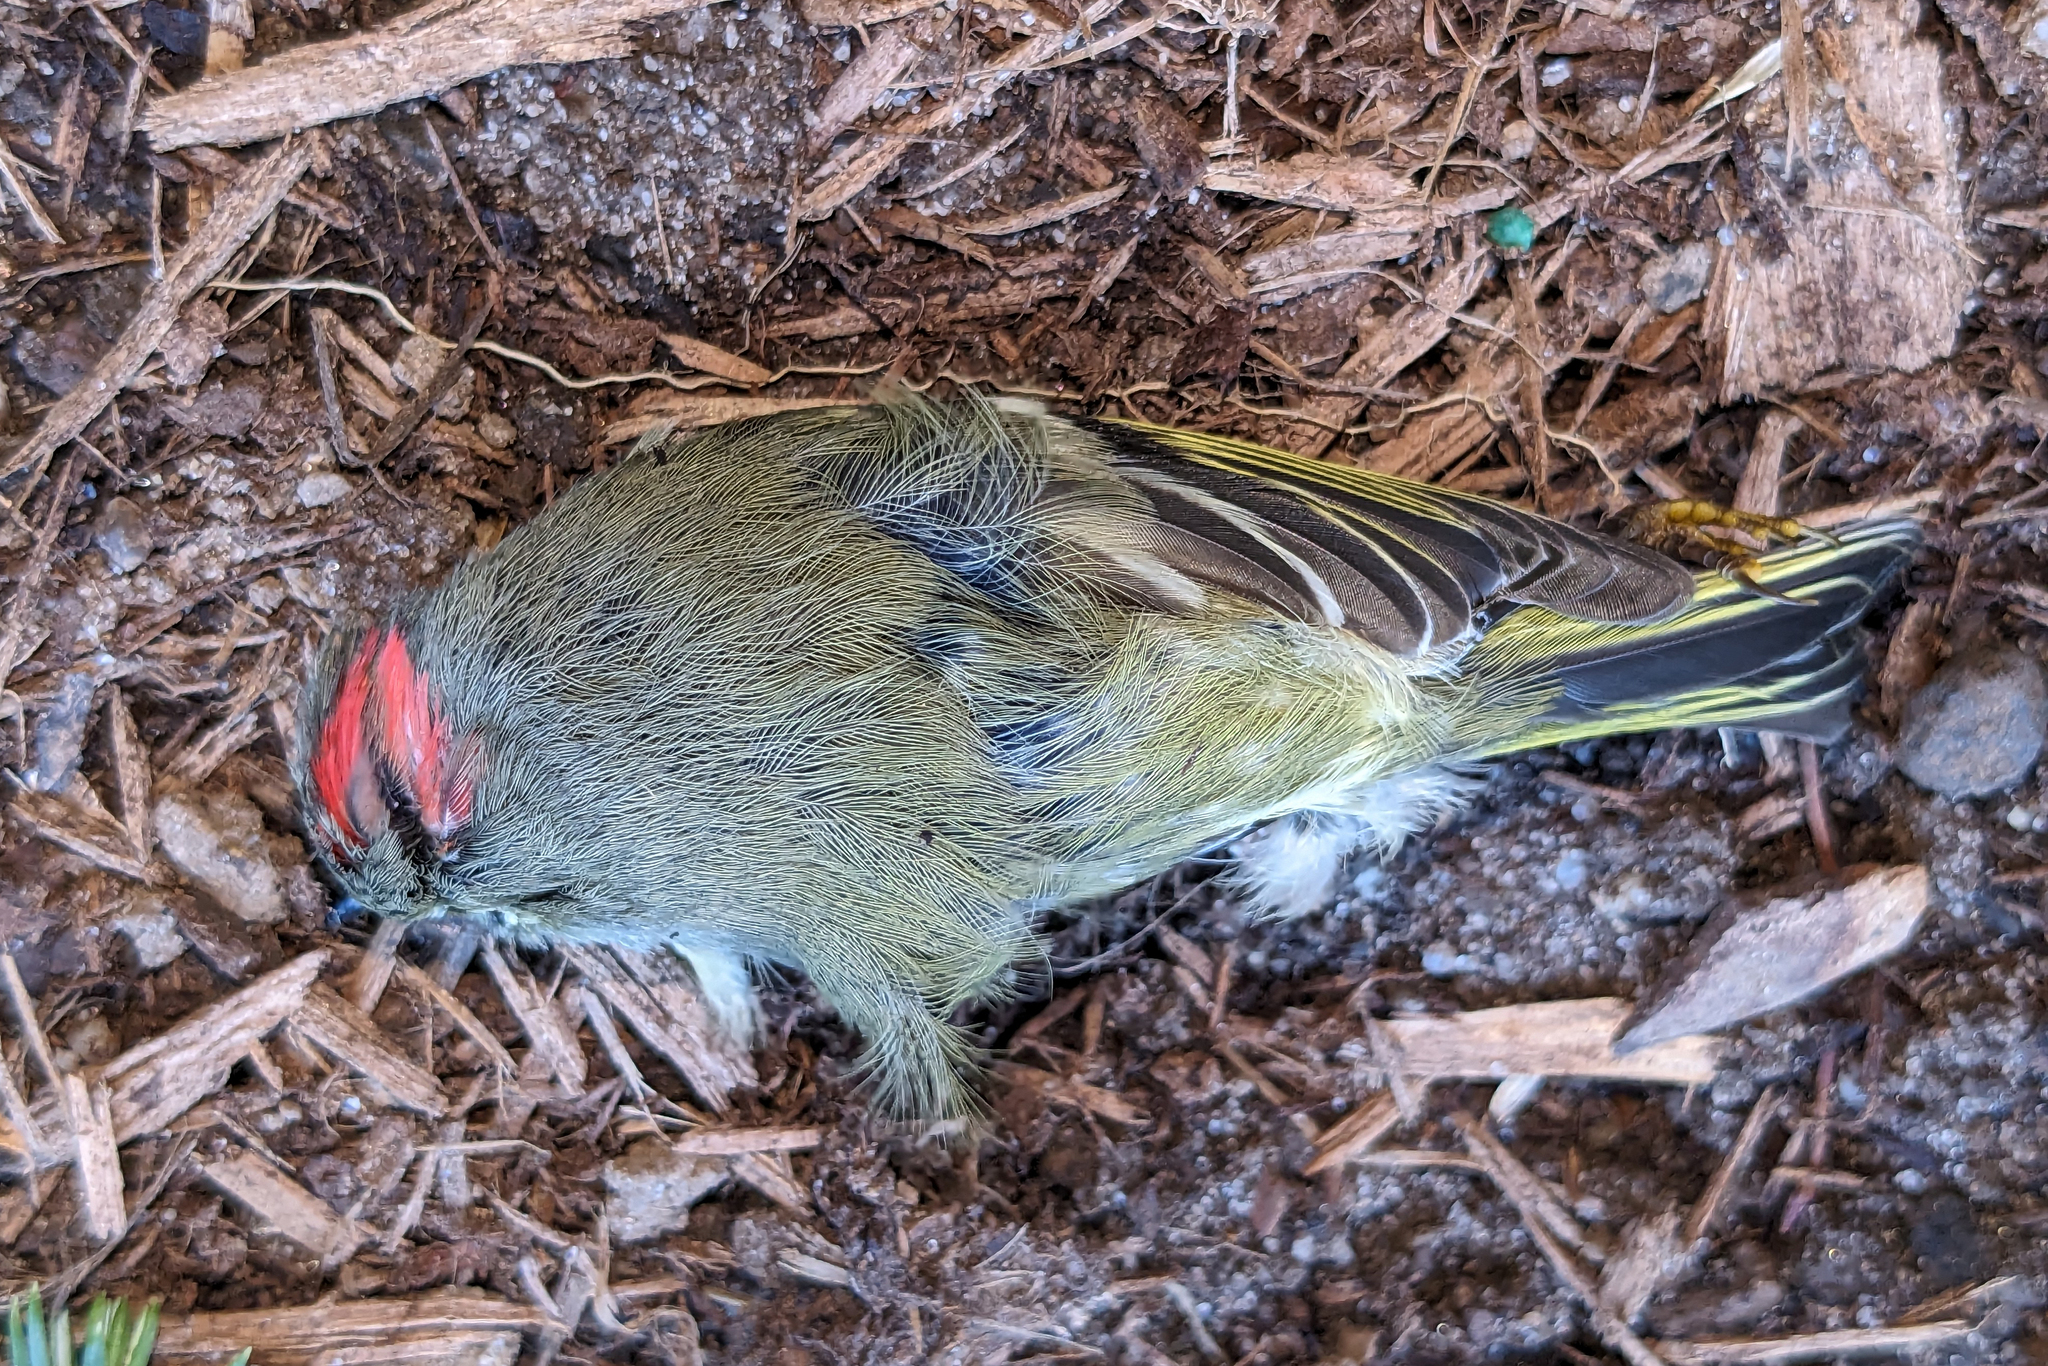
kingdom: Animalia
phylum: Chordata
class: Aves
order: Passeriformes
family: Regulidae
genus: Regulus
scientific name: Regulus calendula
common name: Ruby-crowned kinglet
